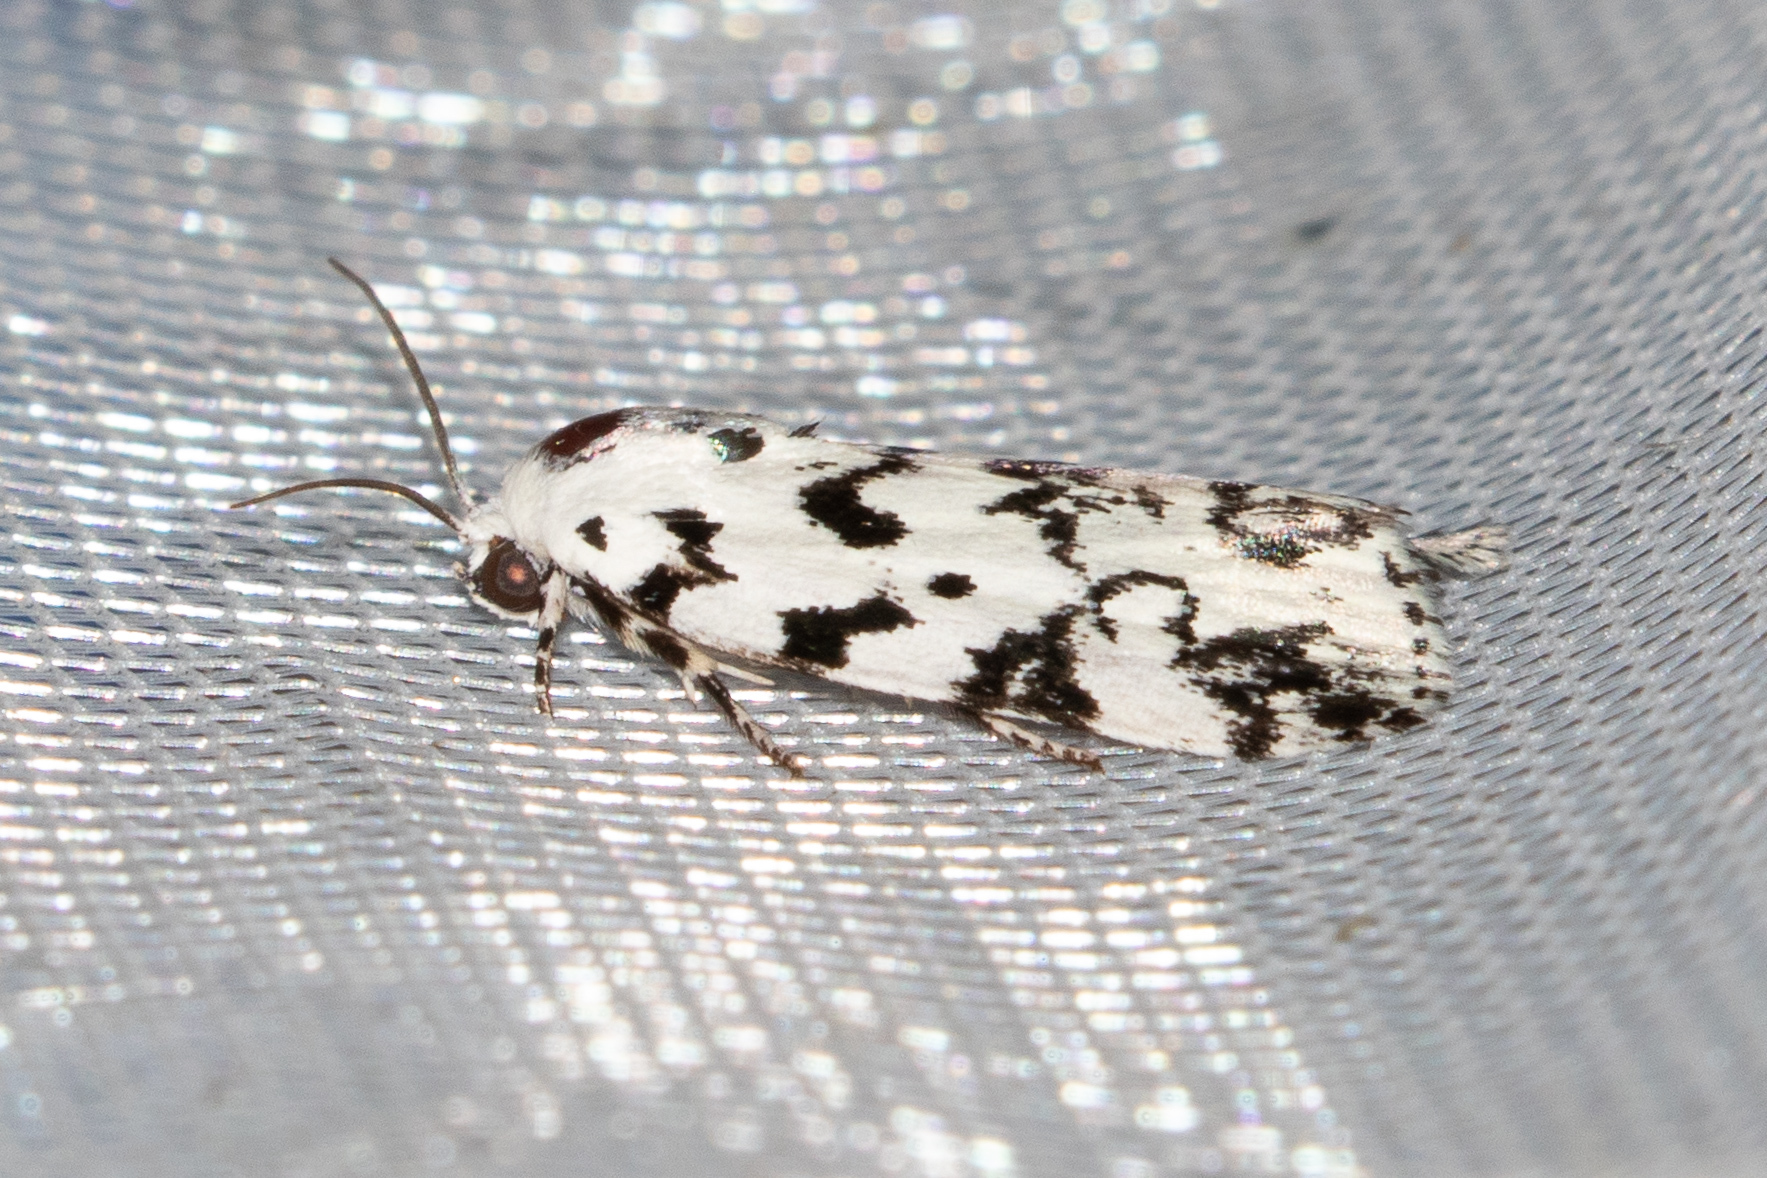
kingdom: Animalia
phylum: Arthropoda
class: Insecta
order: Lepidoptera
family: Noctuidae
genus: Polygrammate
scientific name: Polygrammate hebraeicum
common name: Hebrew moth
